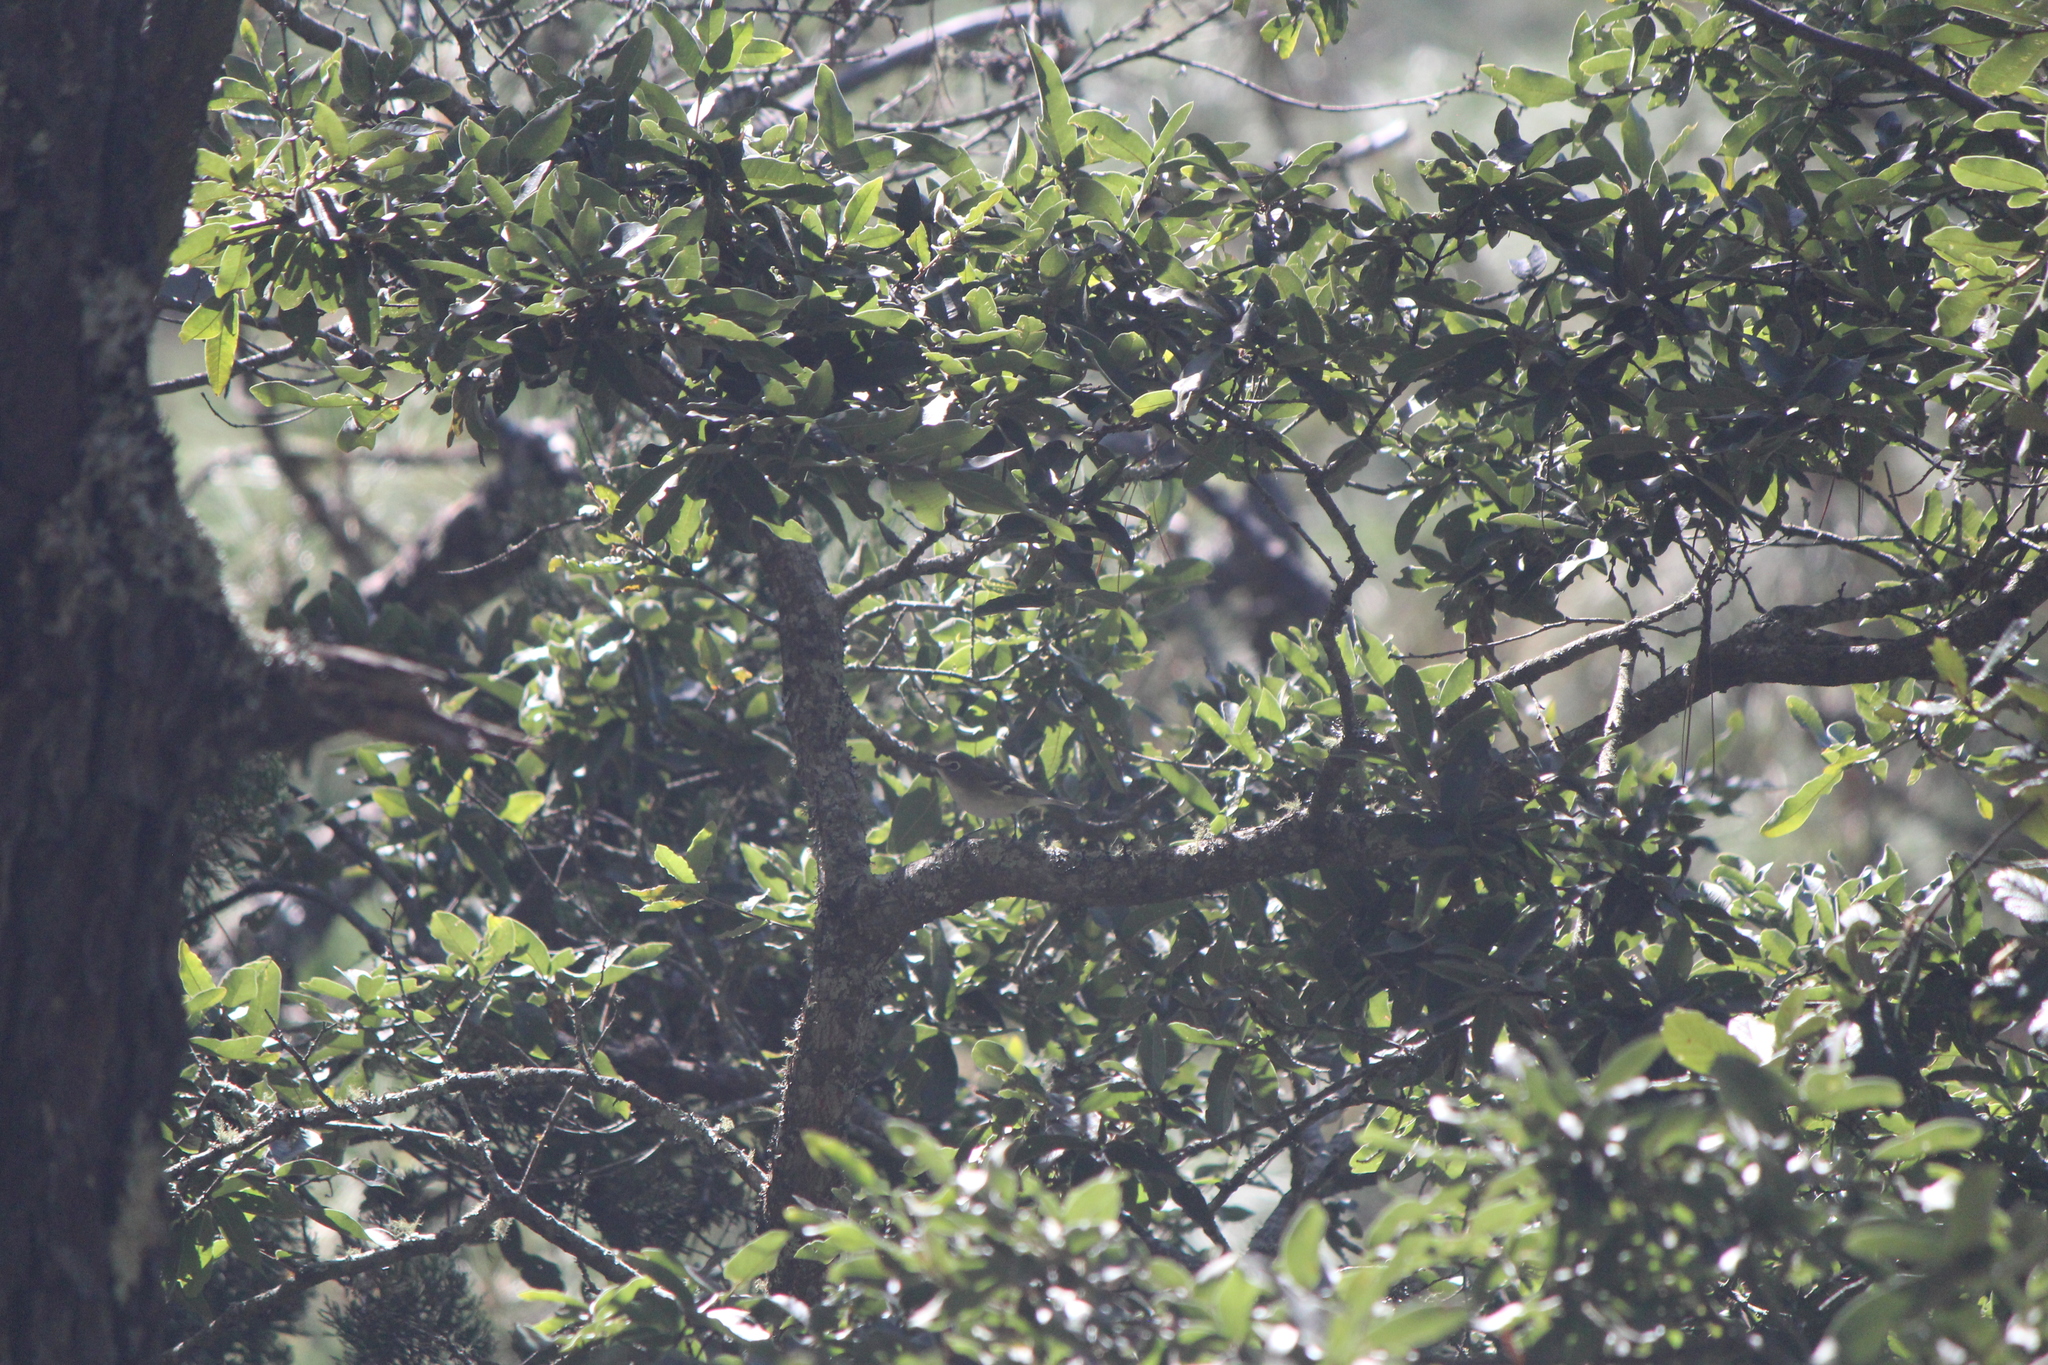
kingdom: Animalia
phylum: Chordata
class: Aves
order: Passeriformes
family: Vireonidae
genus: Vireo
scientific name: Vireo cassinii
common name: Cassin's vireo
